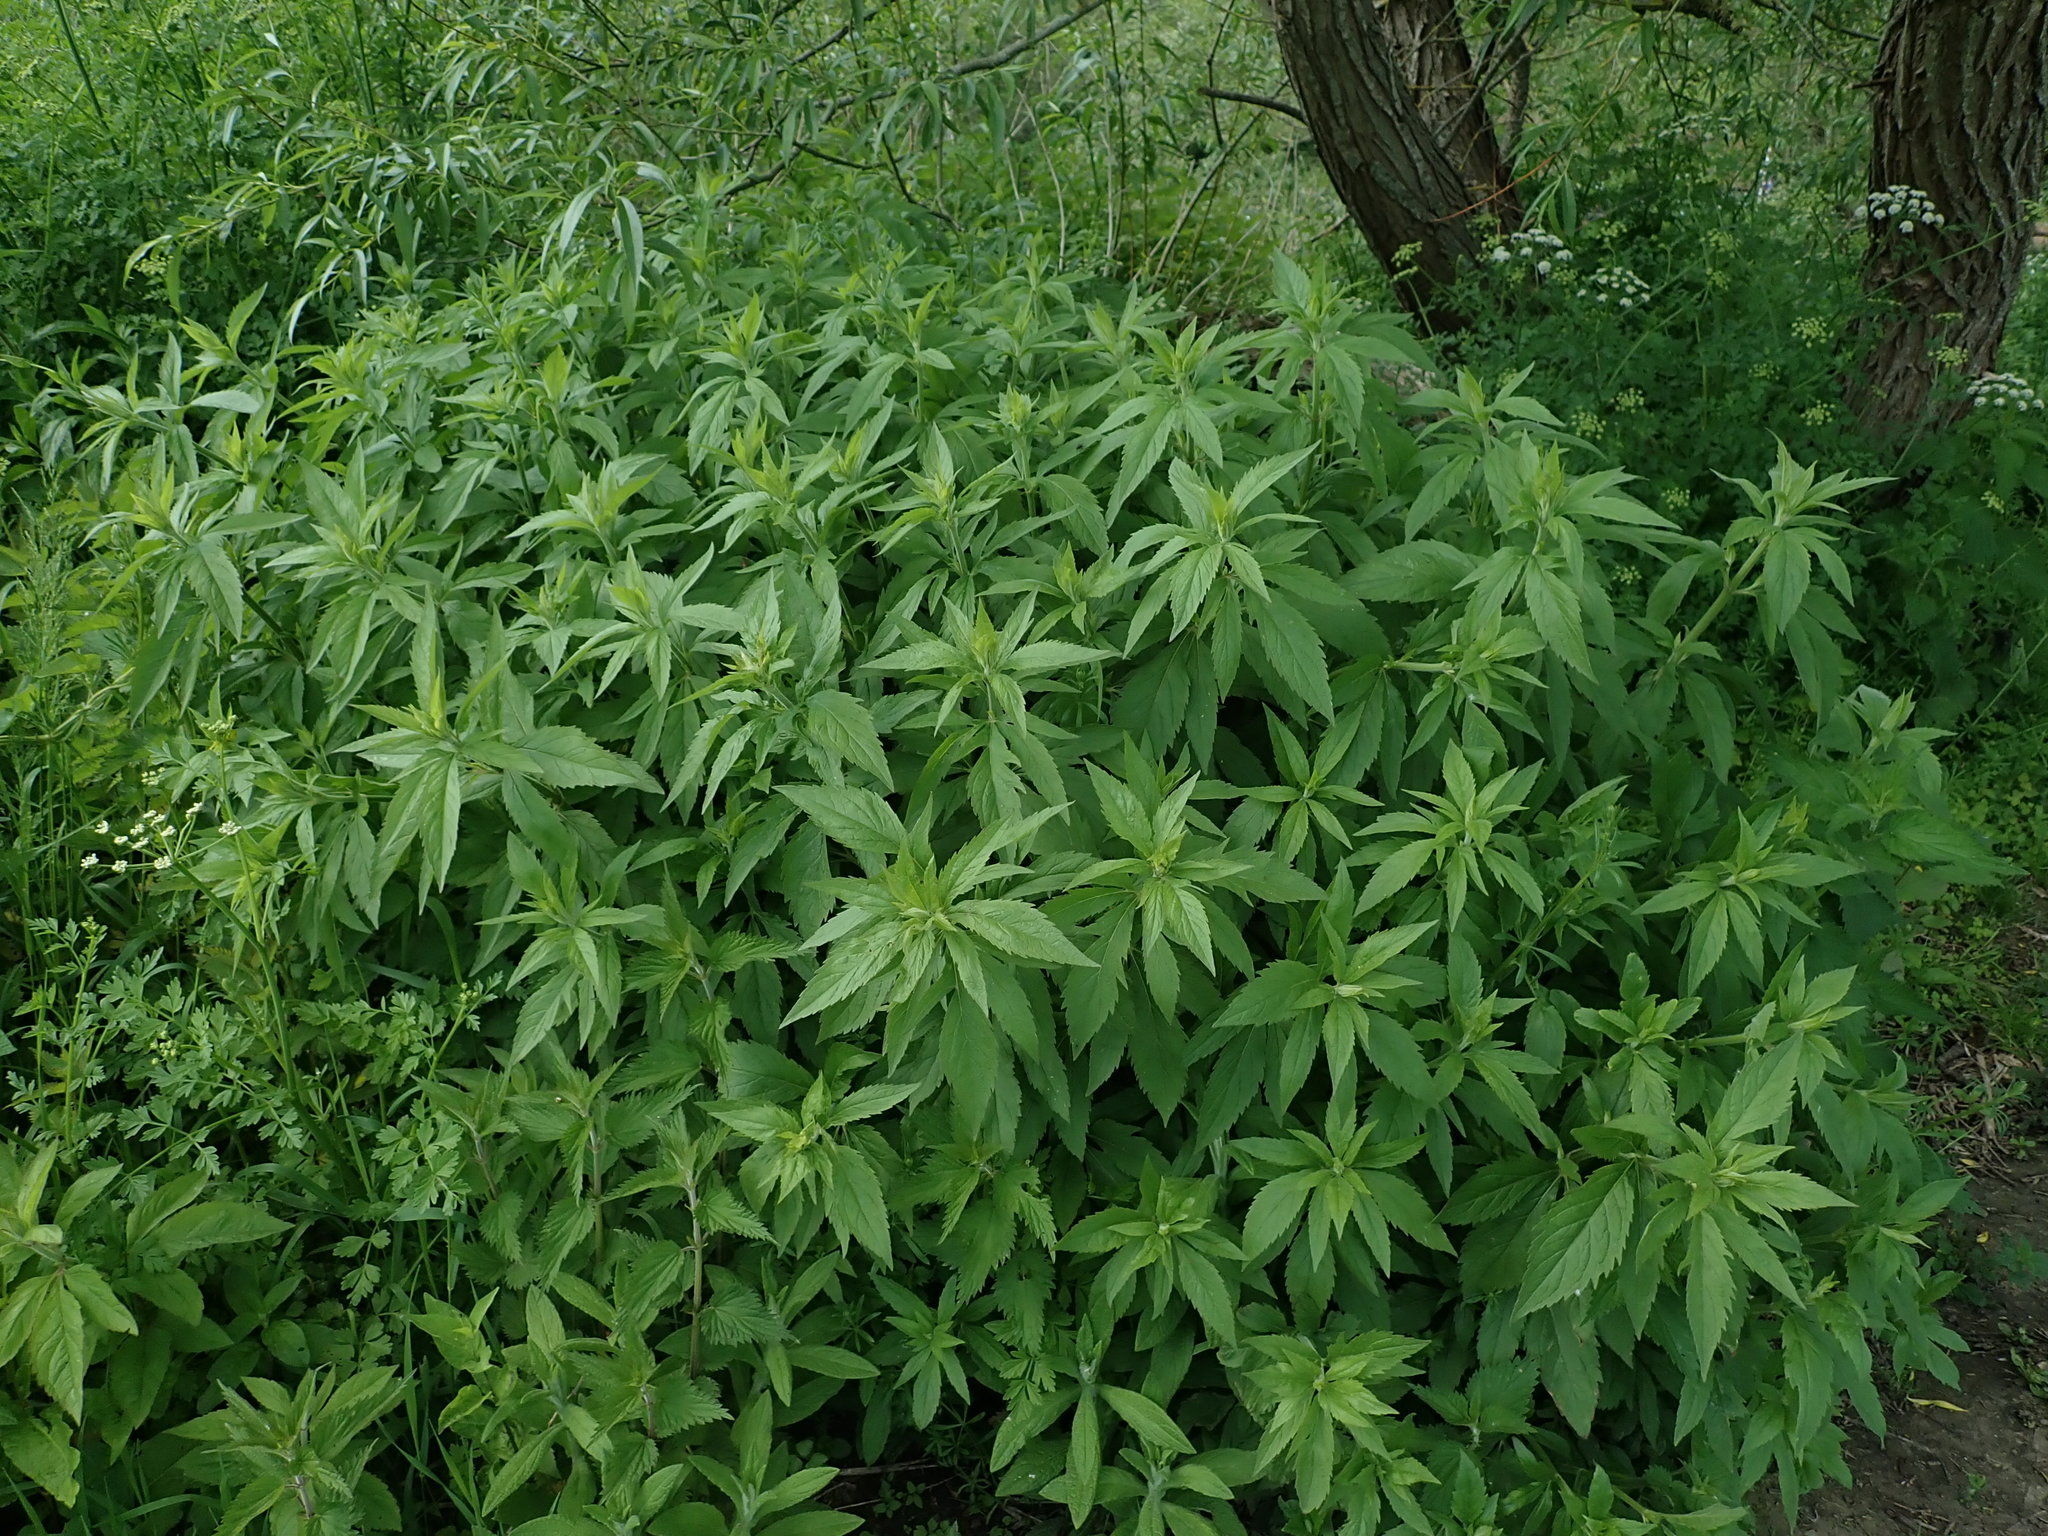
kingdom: Plantae
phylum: Tracheophyta
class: Magnoliopsida
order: Asterales
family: Asteraceae
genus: Eupatorium
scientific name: Eupatorium cannabinum
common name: Hemp-agrimony
